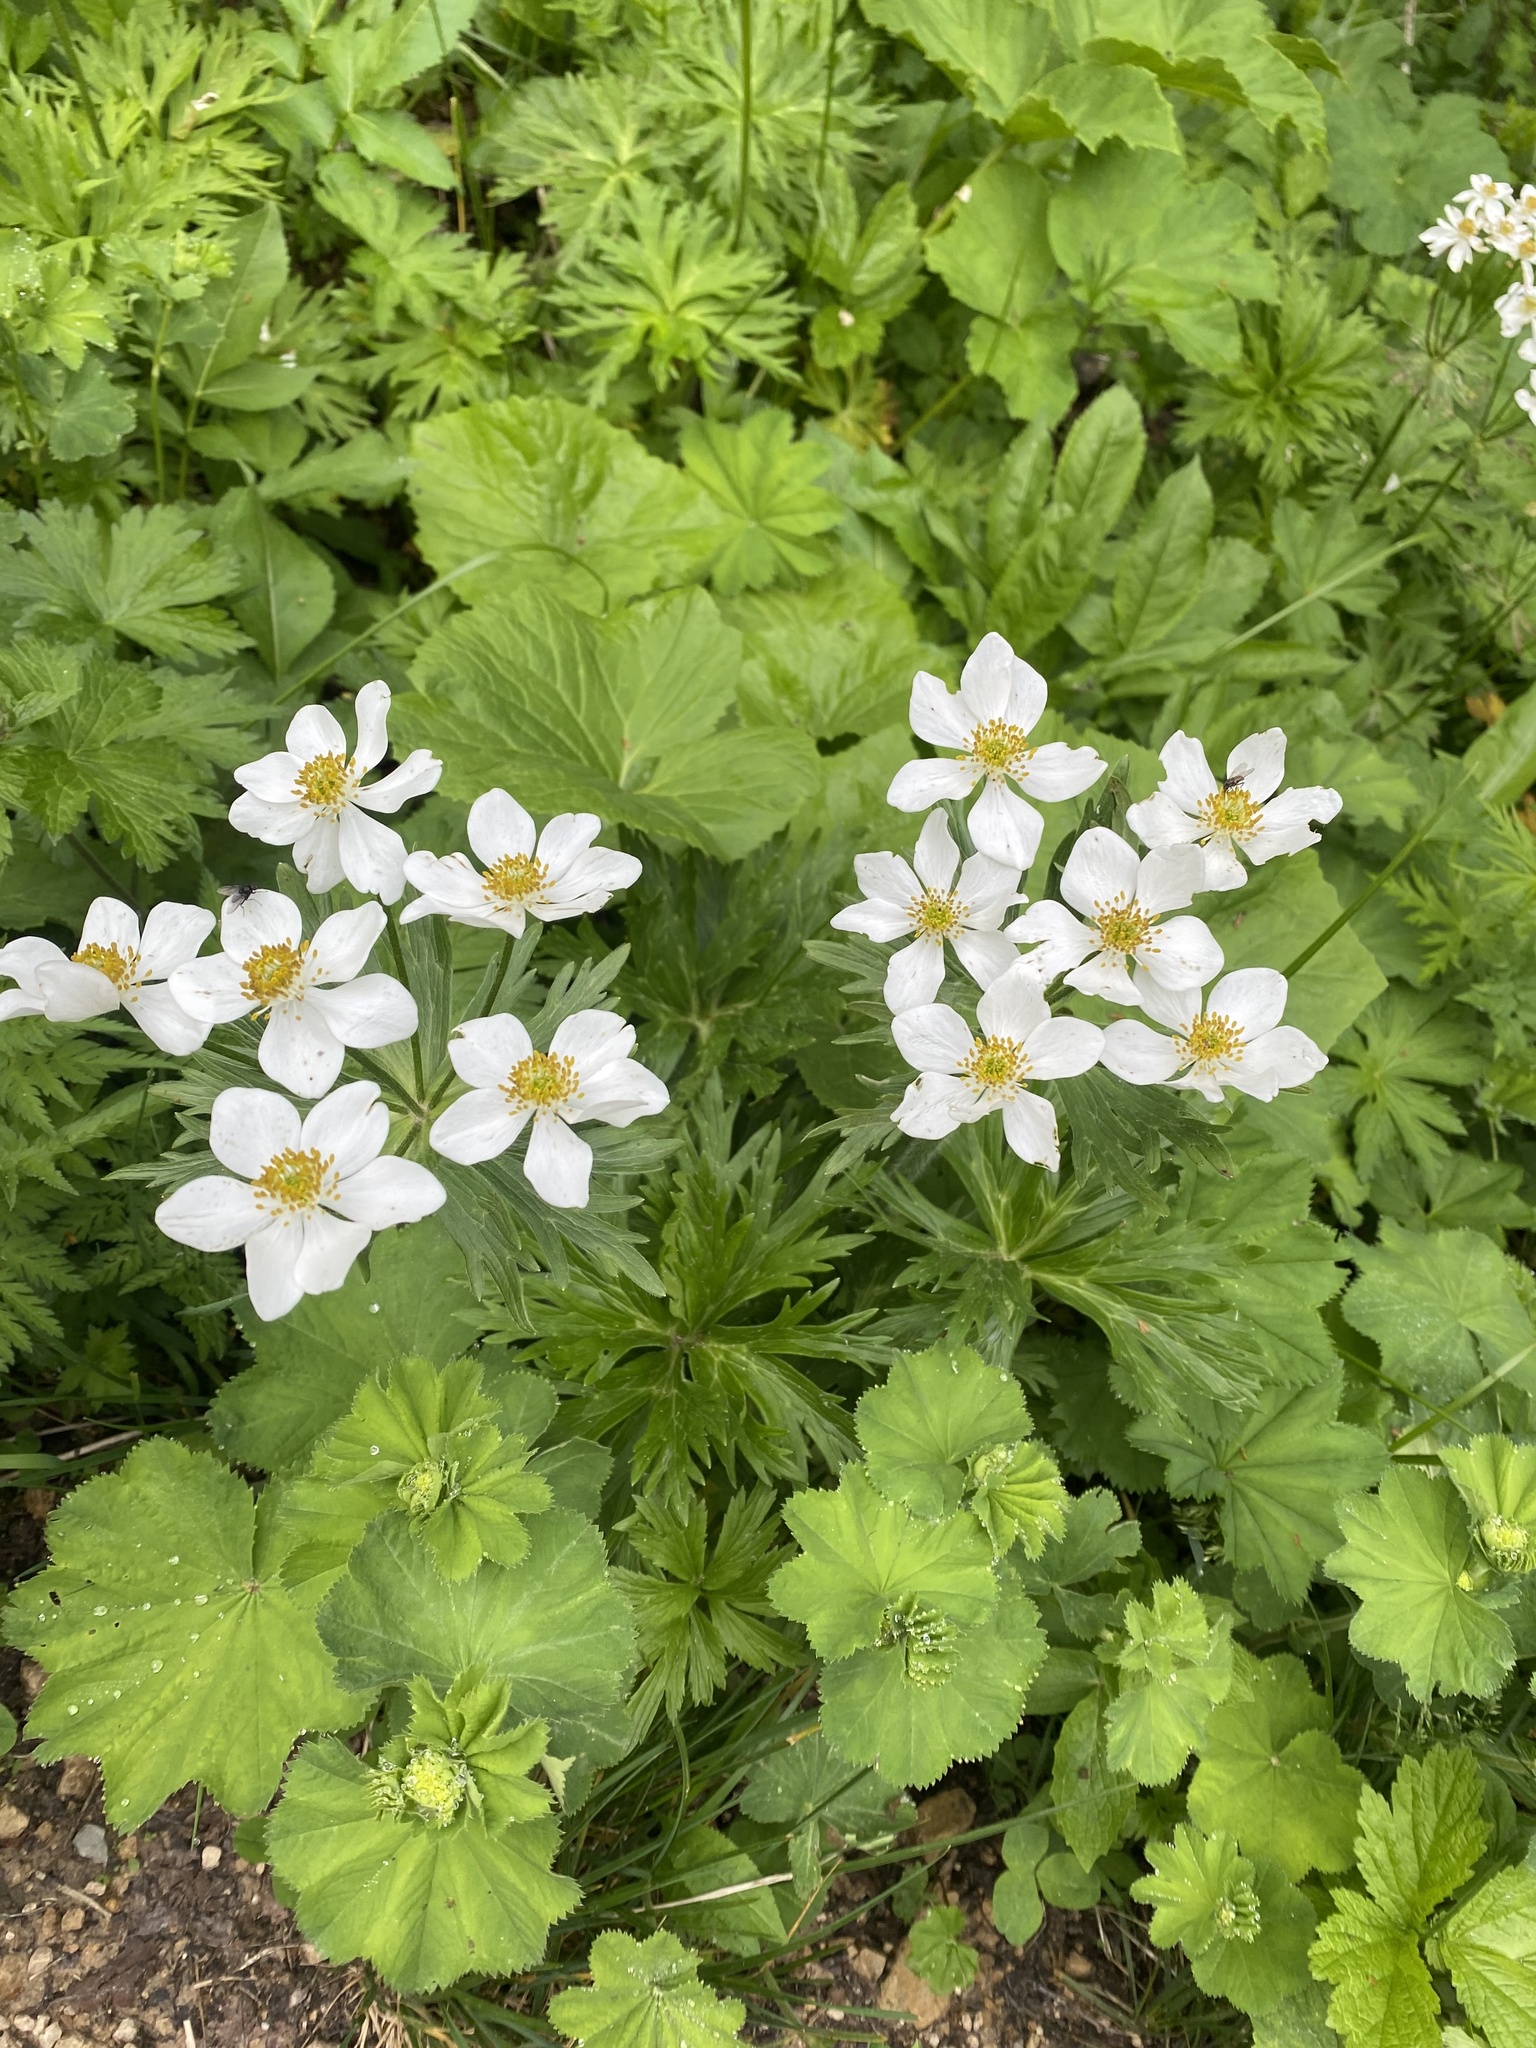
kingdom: Plantae
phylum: Tracheophyta
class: Magnoliopsida
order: Ranunculales
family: Ranunculaceae
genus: Anemonastrum
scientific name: Anemonastrum narcissiflorum
